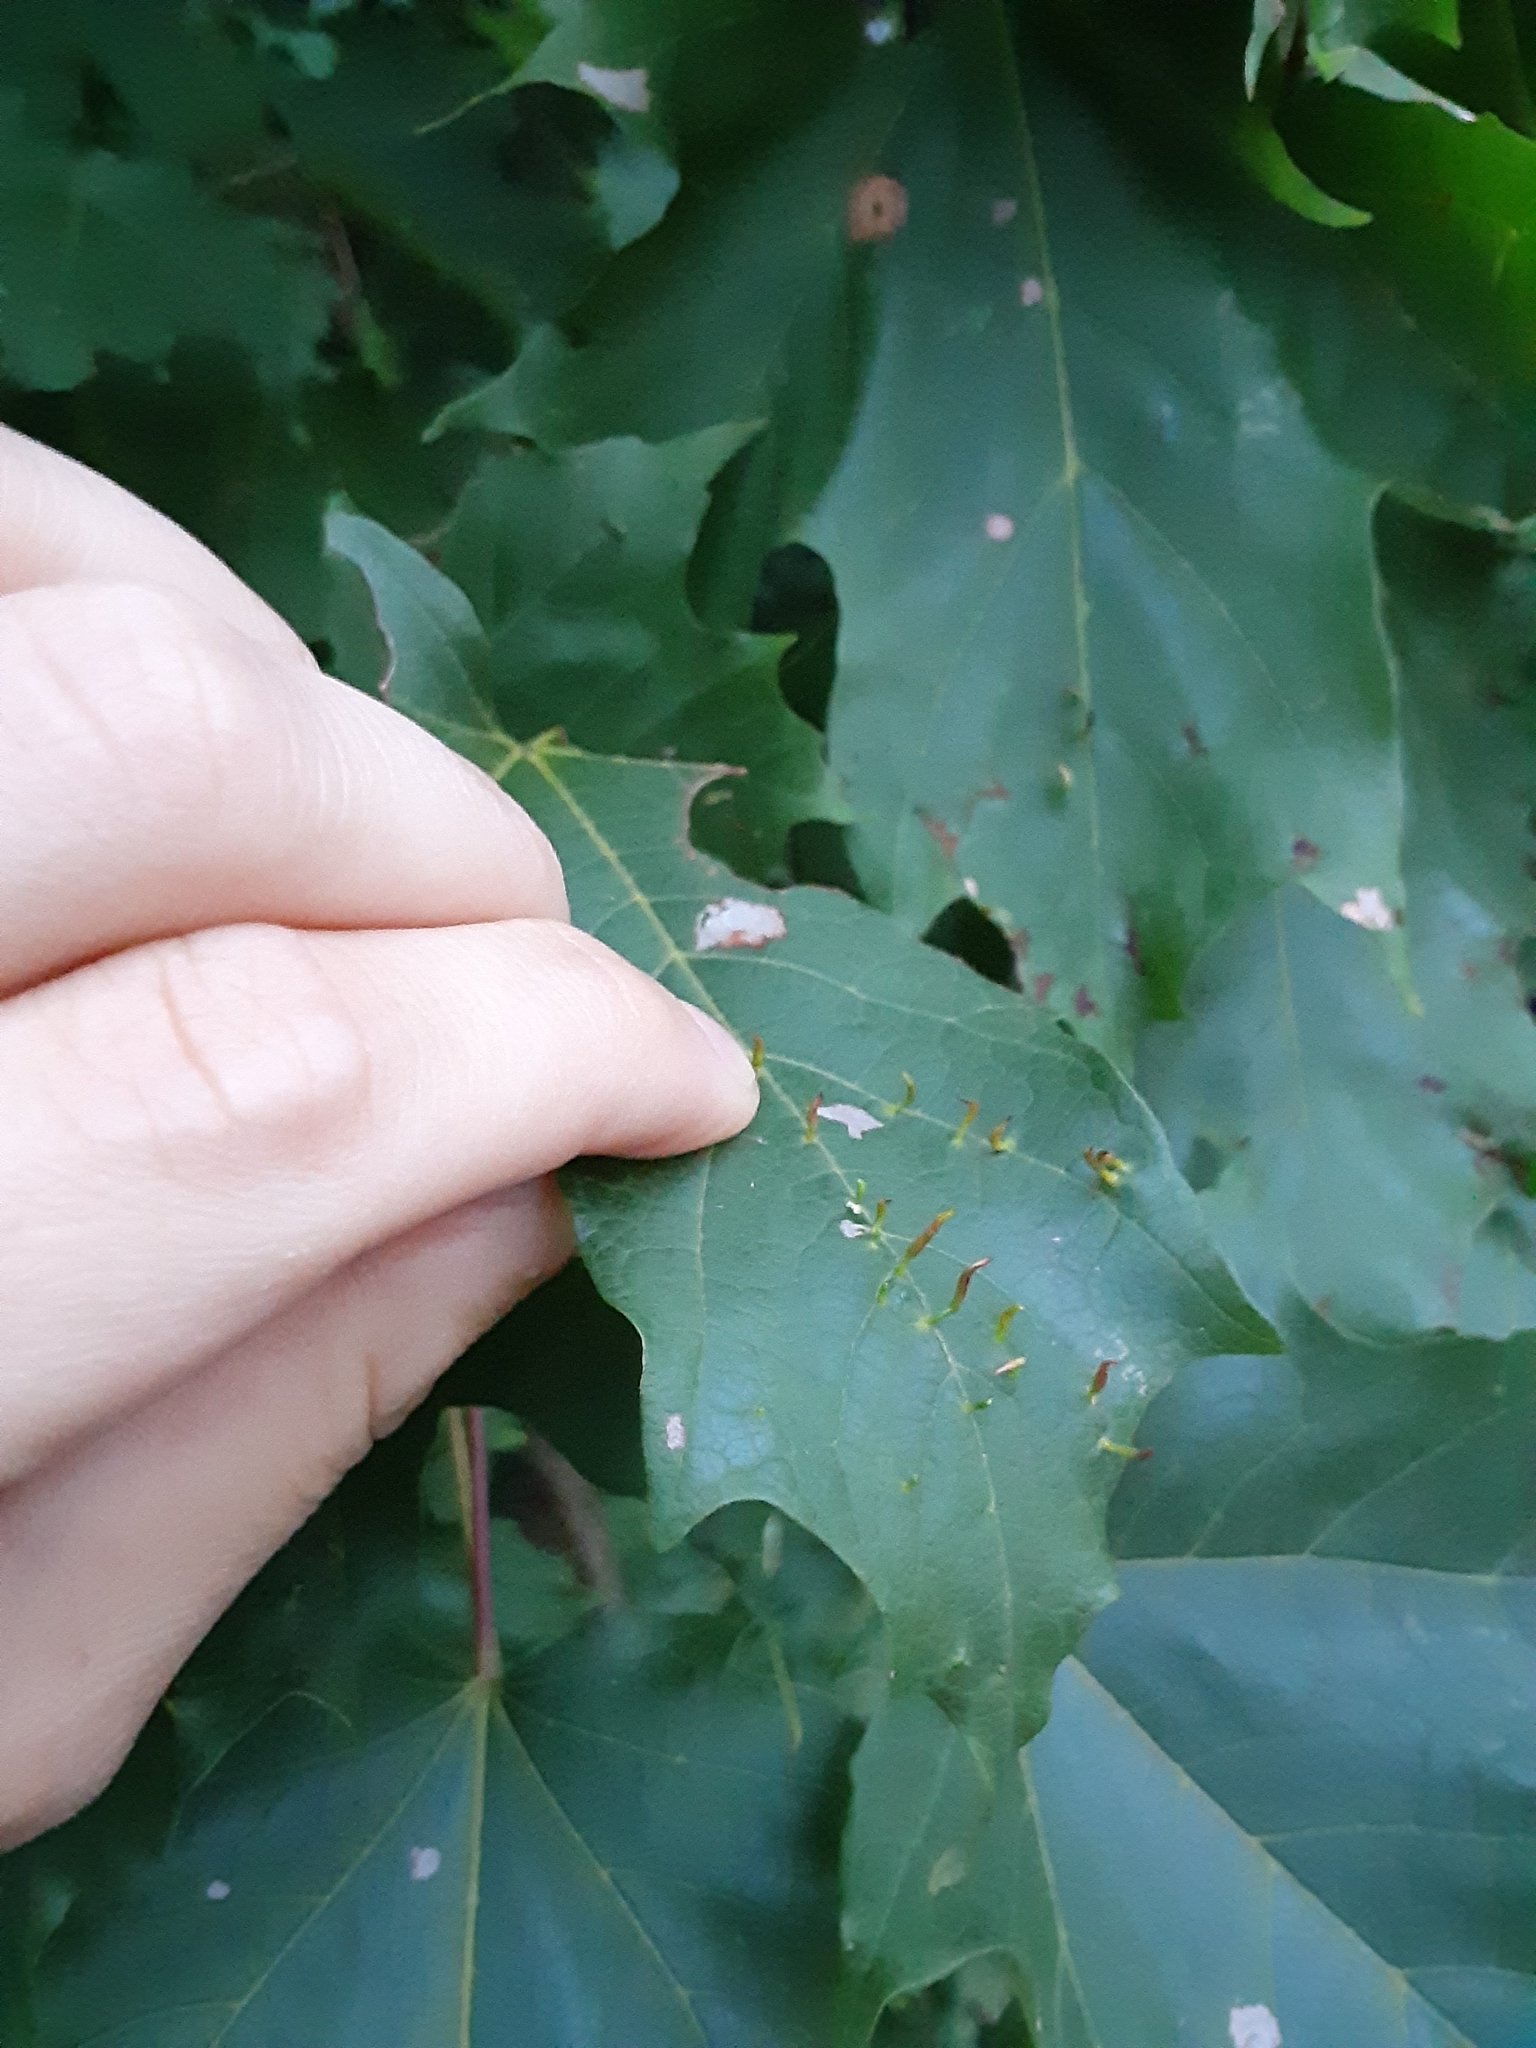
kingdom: Animalia
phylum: Arthropoda
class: Arachnida
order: Trombidiformes
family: Eriophyidae
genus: Vasates
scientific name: Vasates aceriscrumena
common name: Maple spindle gall mite
